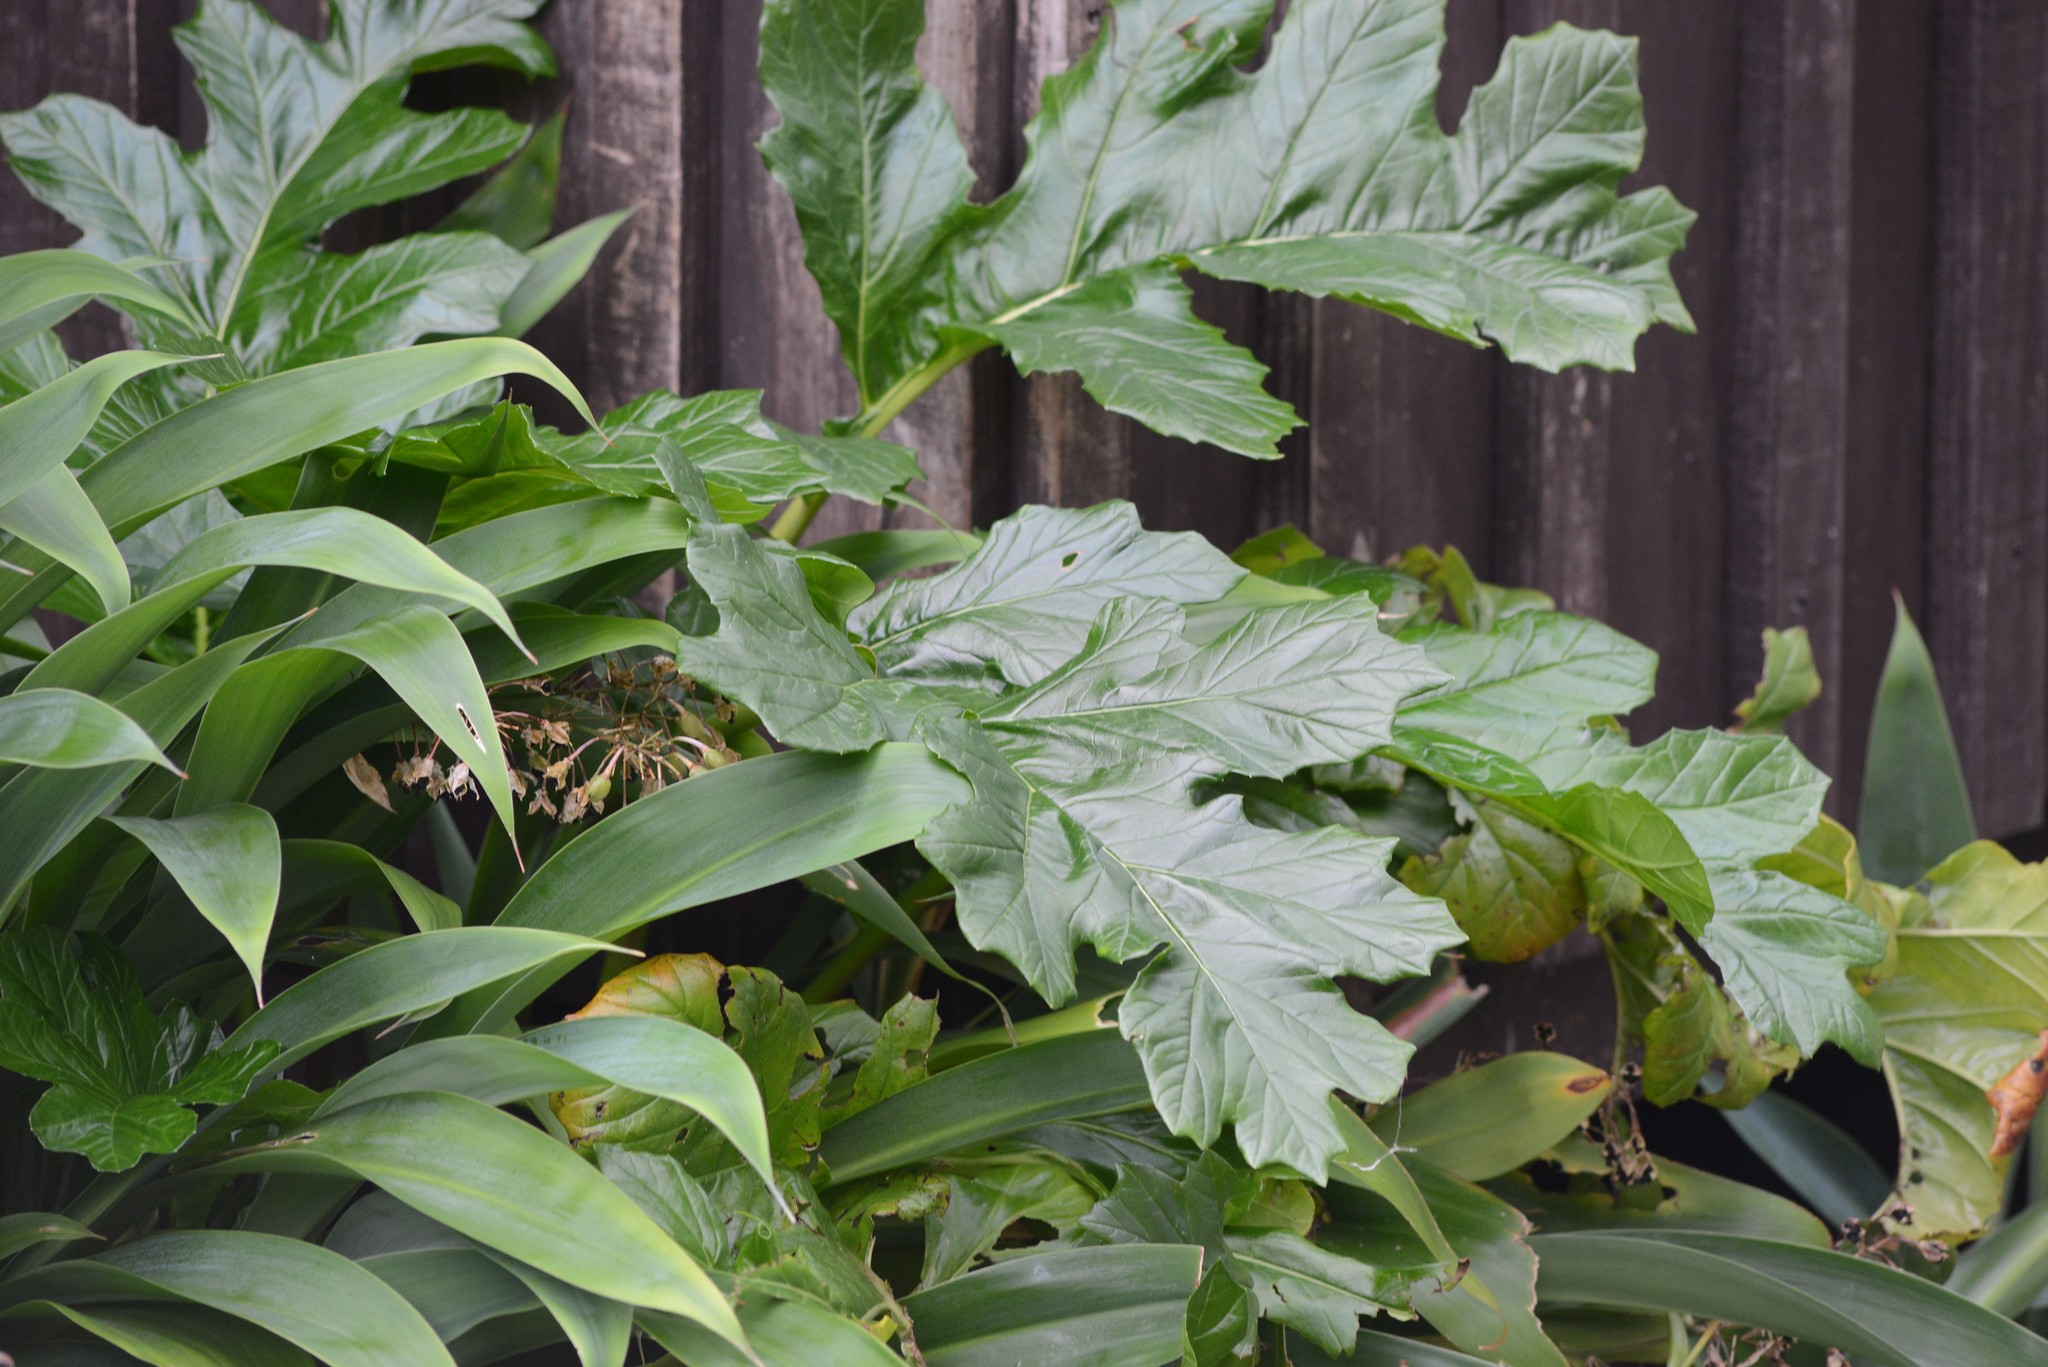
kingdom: Plantae
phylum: Tracheophyta
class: Magnoliopsida
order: Lamiales
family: Acanthaceae
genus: Acanthus
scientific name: Acanthus mollis
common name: Bear's-breech
